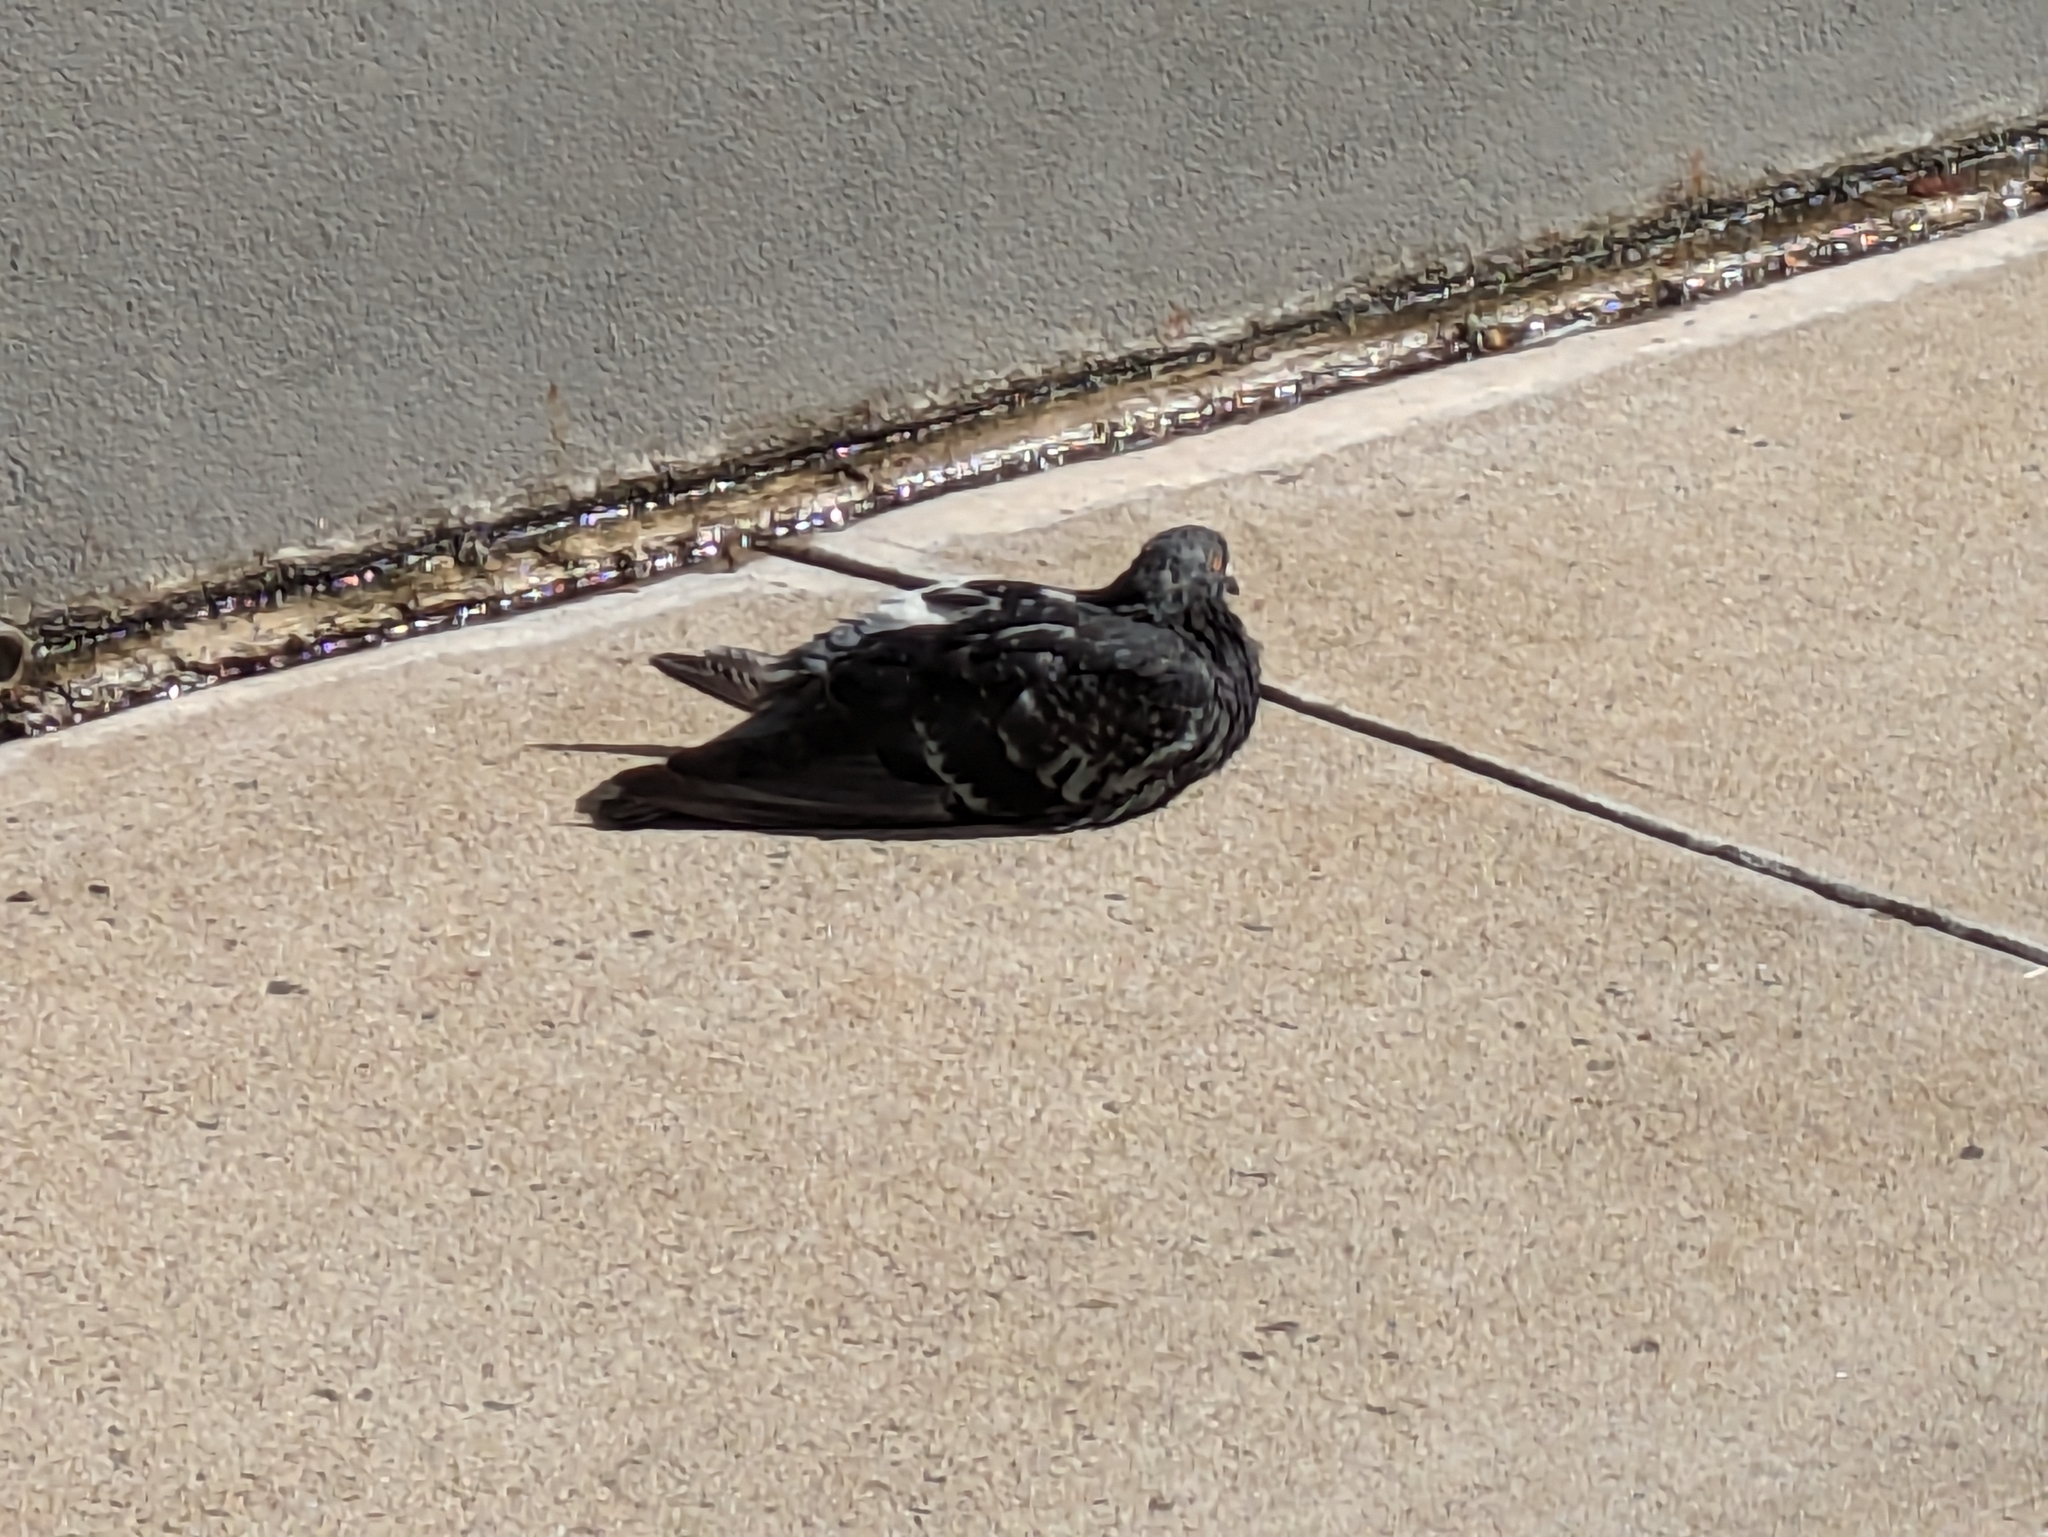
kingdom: Animalia
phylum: Chordata
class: Aves
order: Columbiformes
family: Columbidae
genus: Columba
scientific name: Columba livia
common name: Rock pigeon
